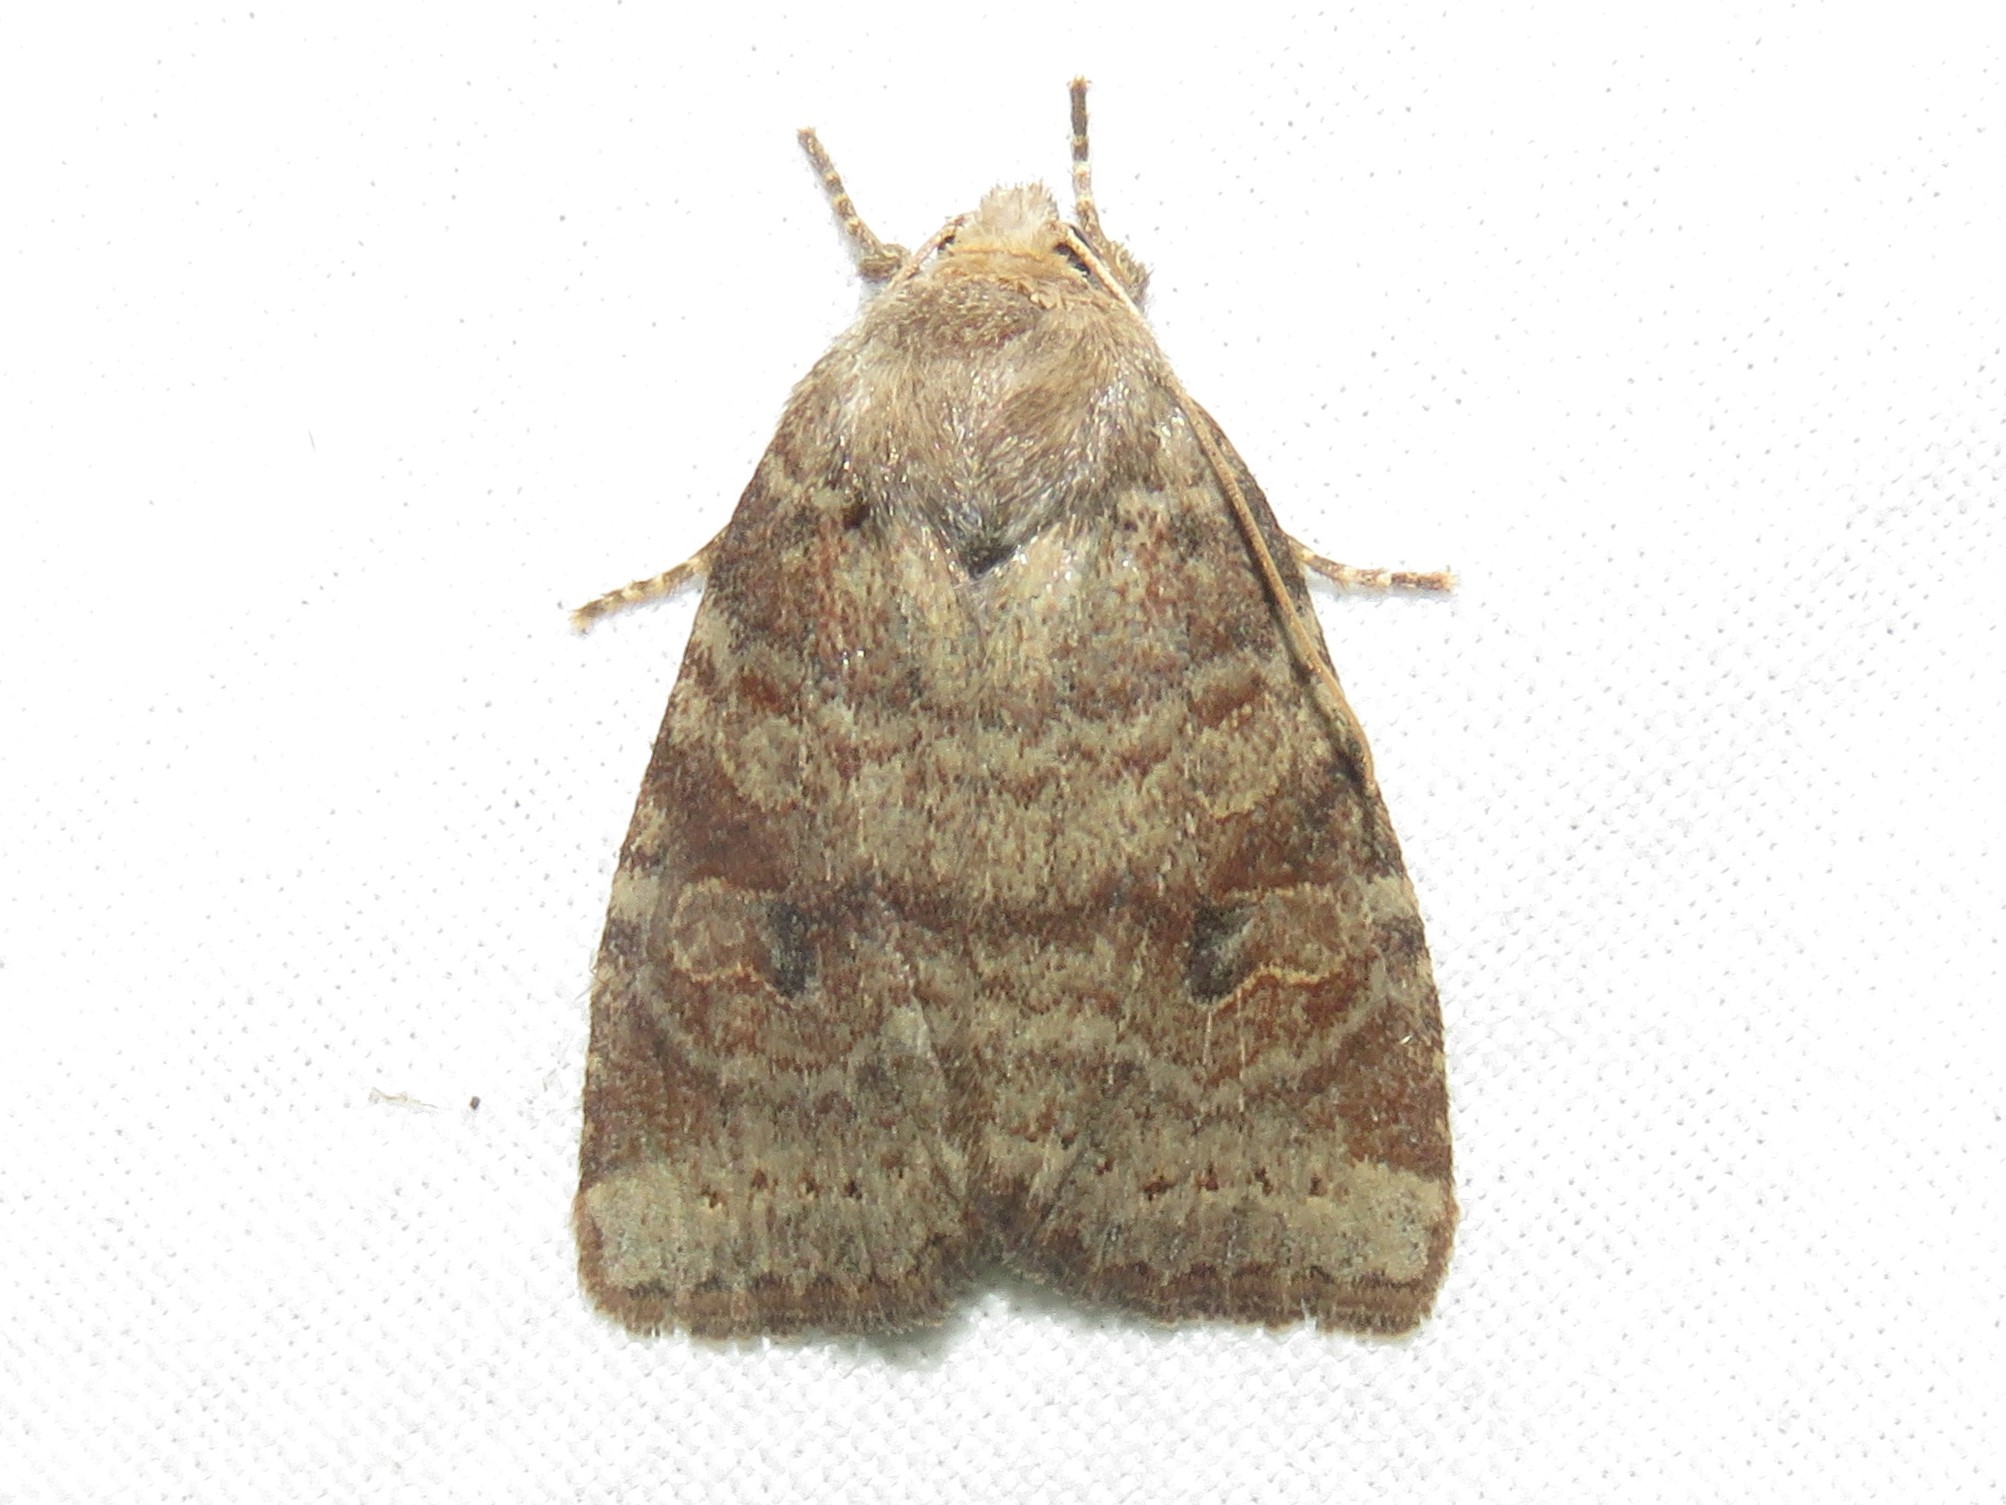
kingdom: Animalia
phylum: Arthropoda
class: Insecta
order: Lepidoptera
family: Noctuidae
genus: Anathix
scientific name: Anathix puta
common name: Puta sallow
